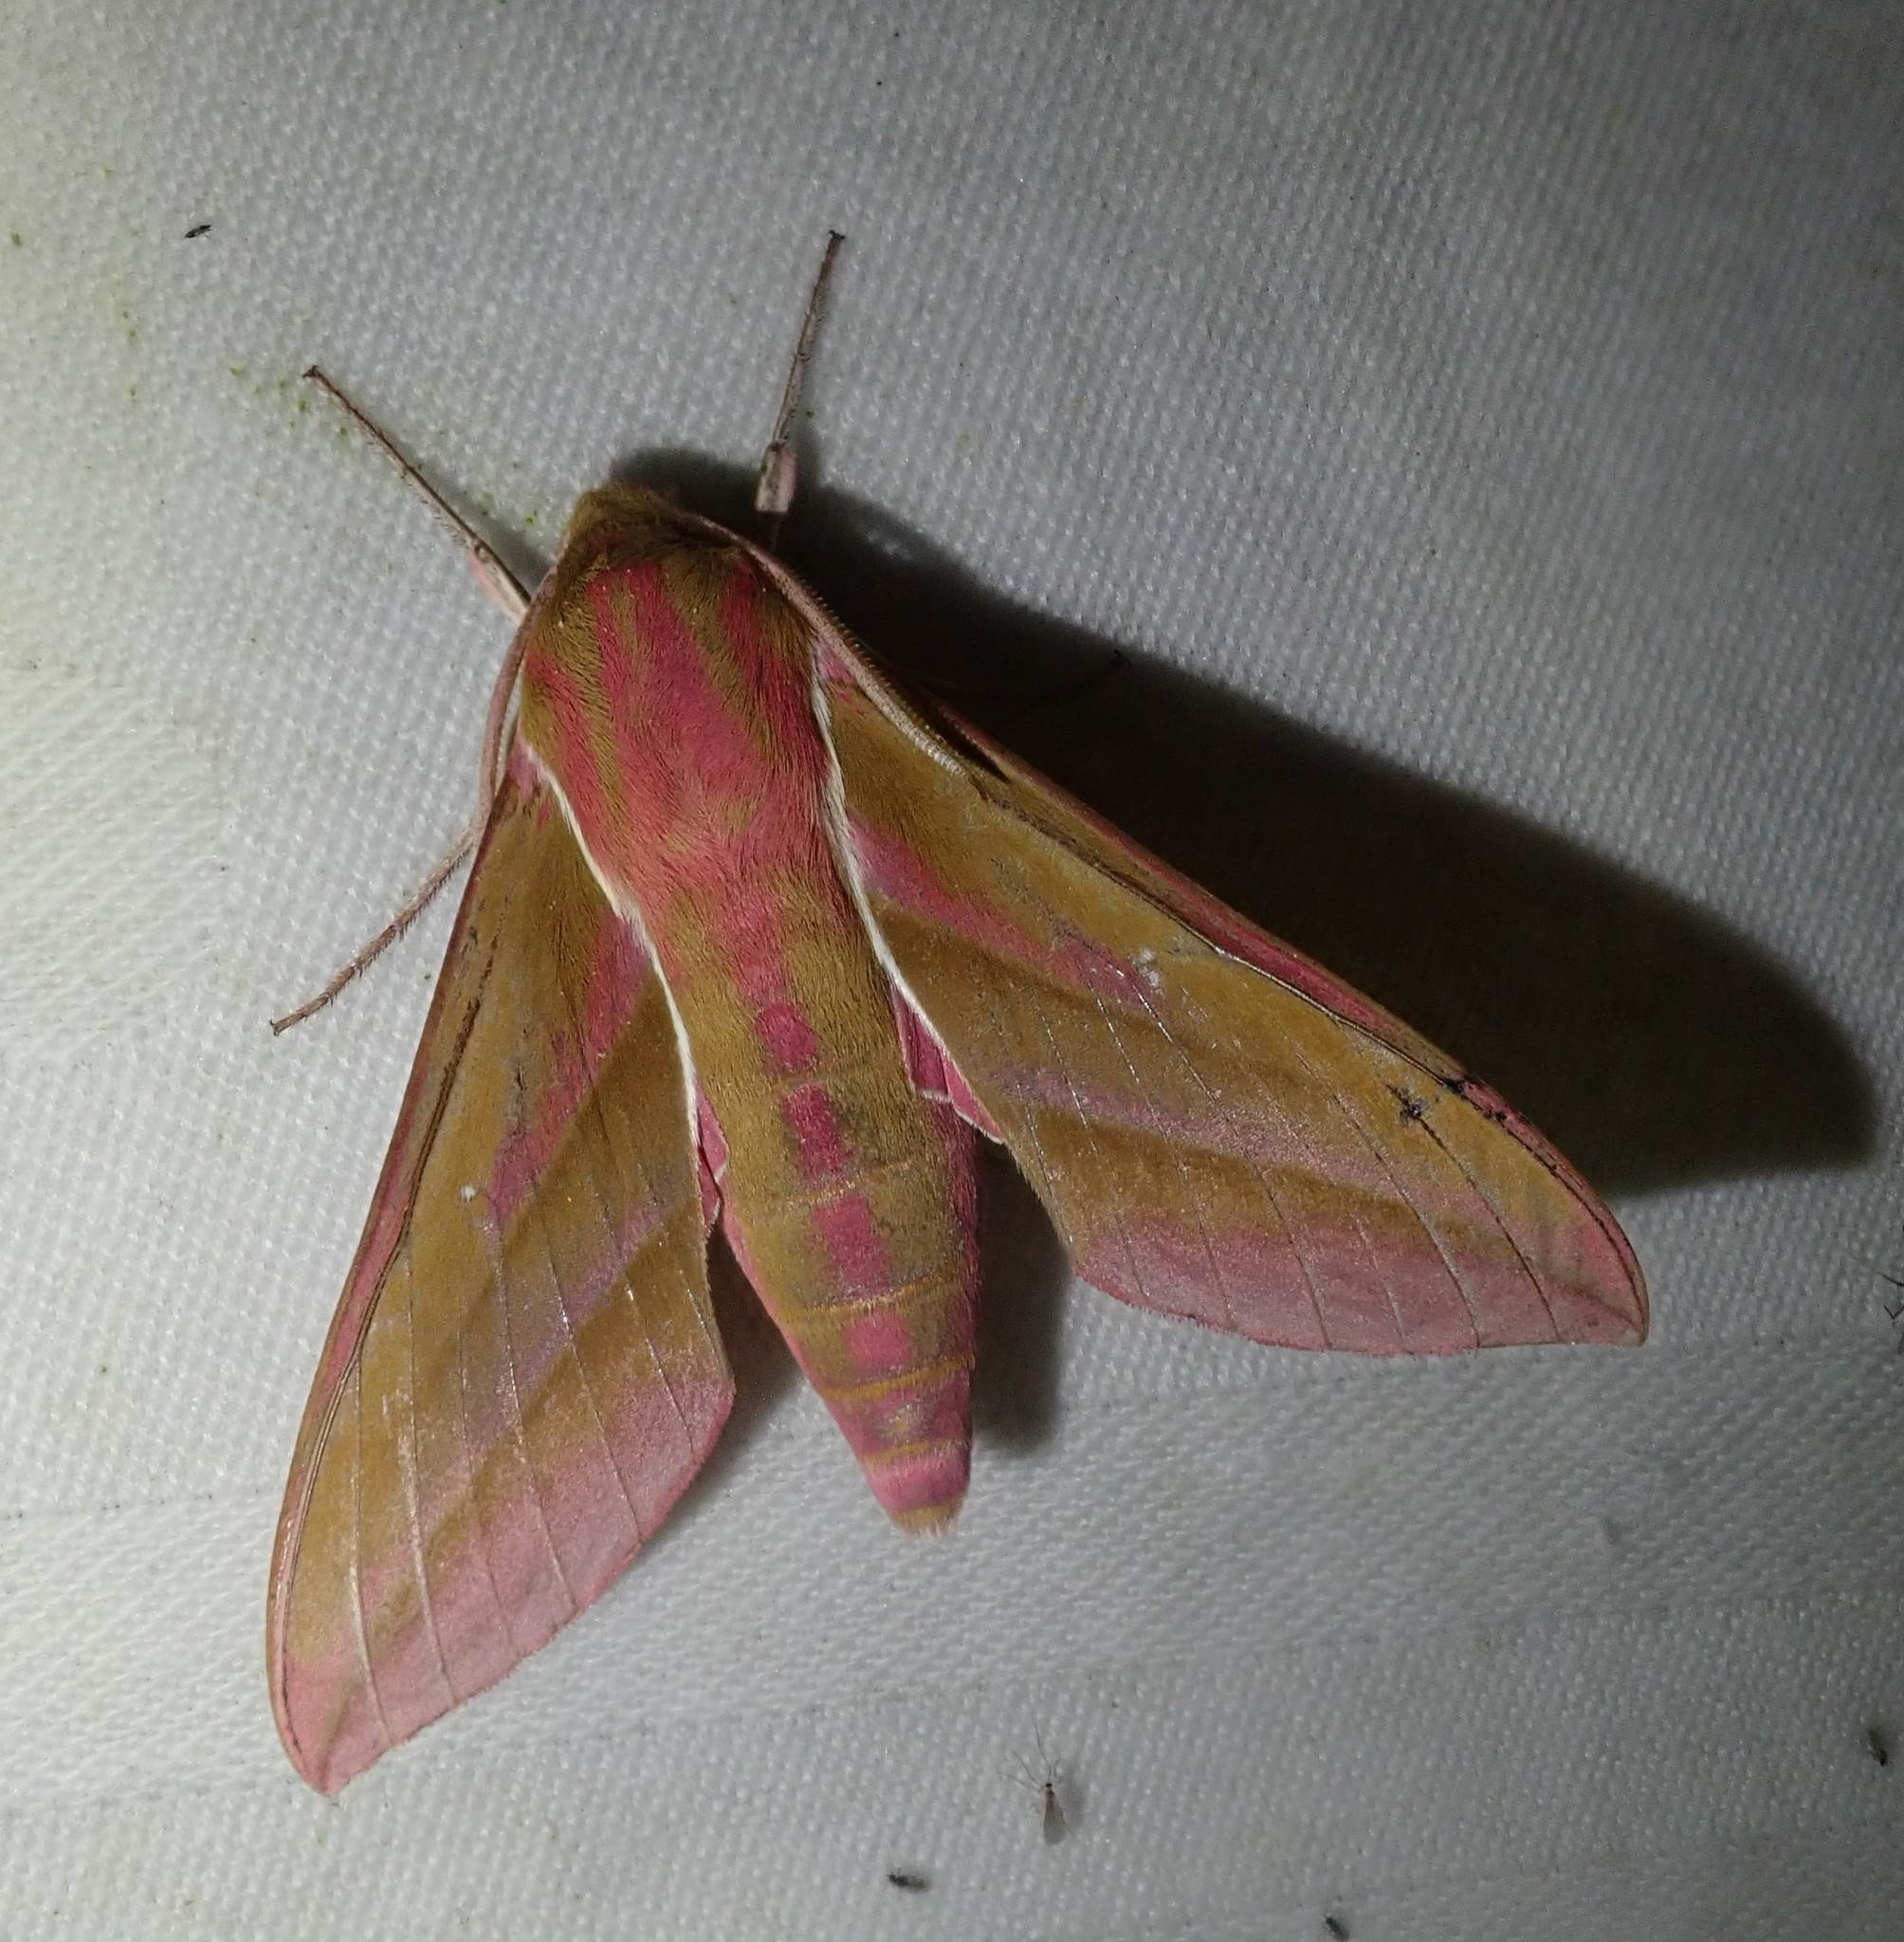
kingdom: Animalia
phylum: Arthropoda
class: Insecta
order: Lepidoptera
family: Sphingidae
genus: Deilephila
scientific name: Deilephila elpenor
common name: Elephant hawk-moth
